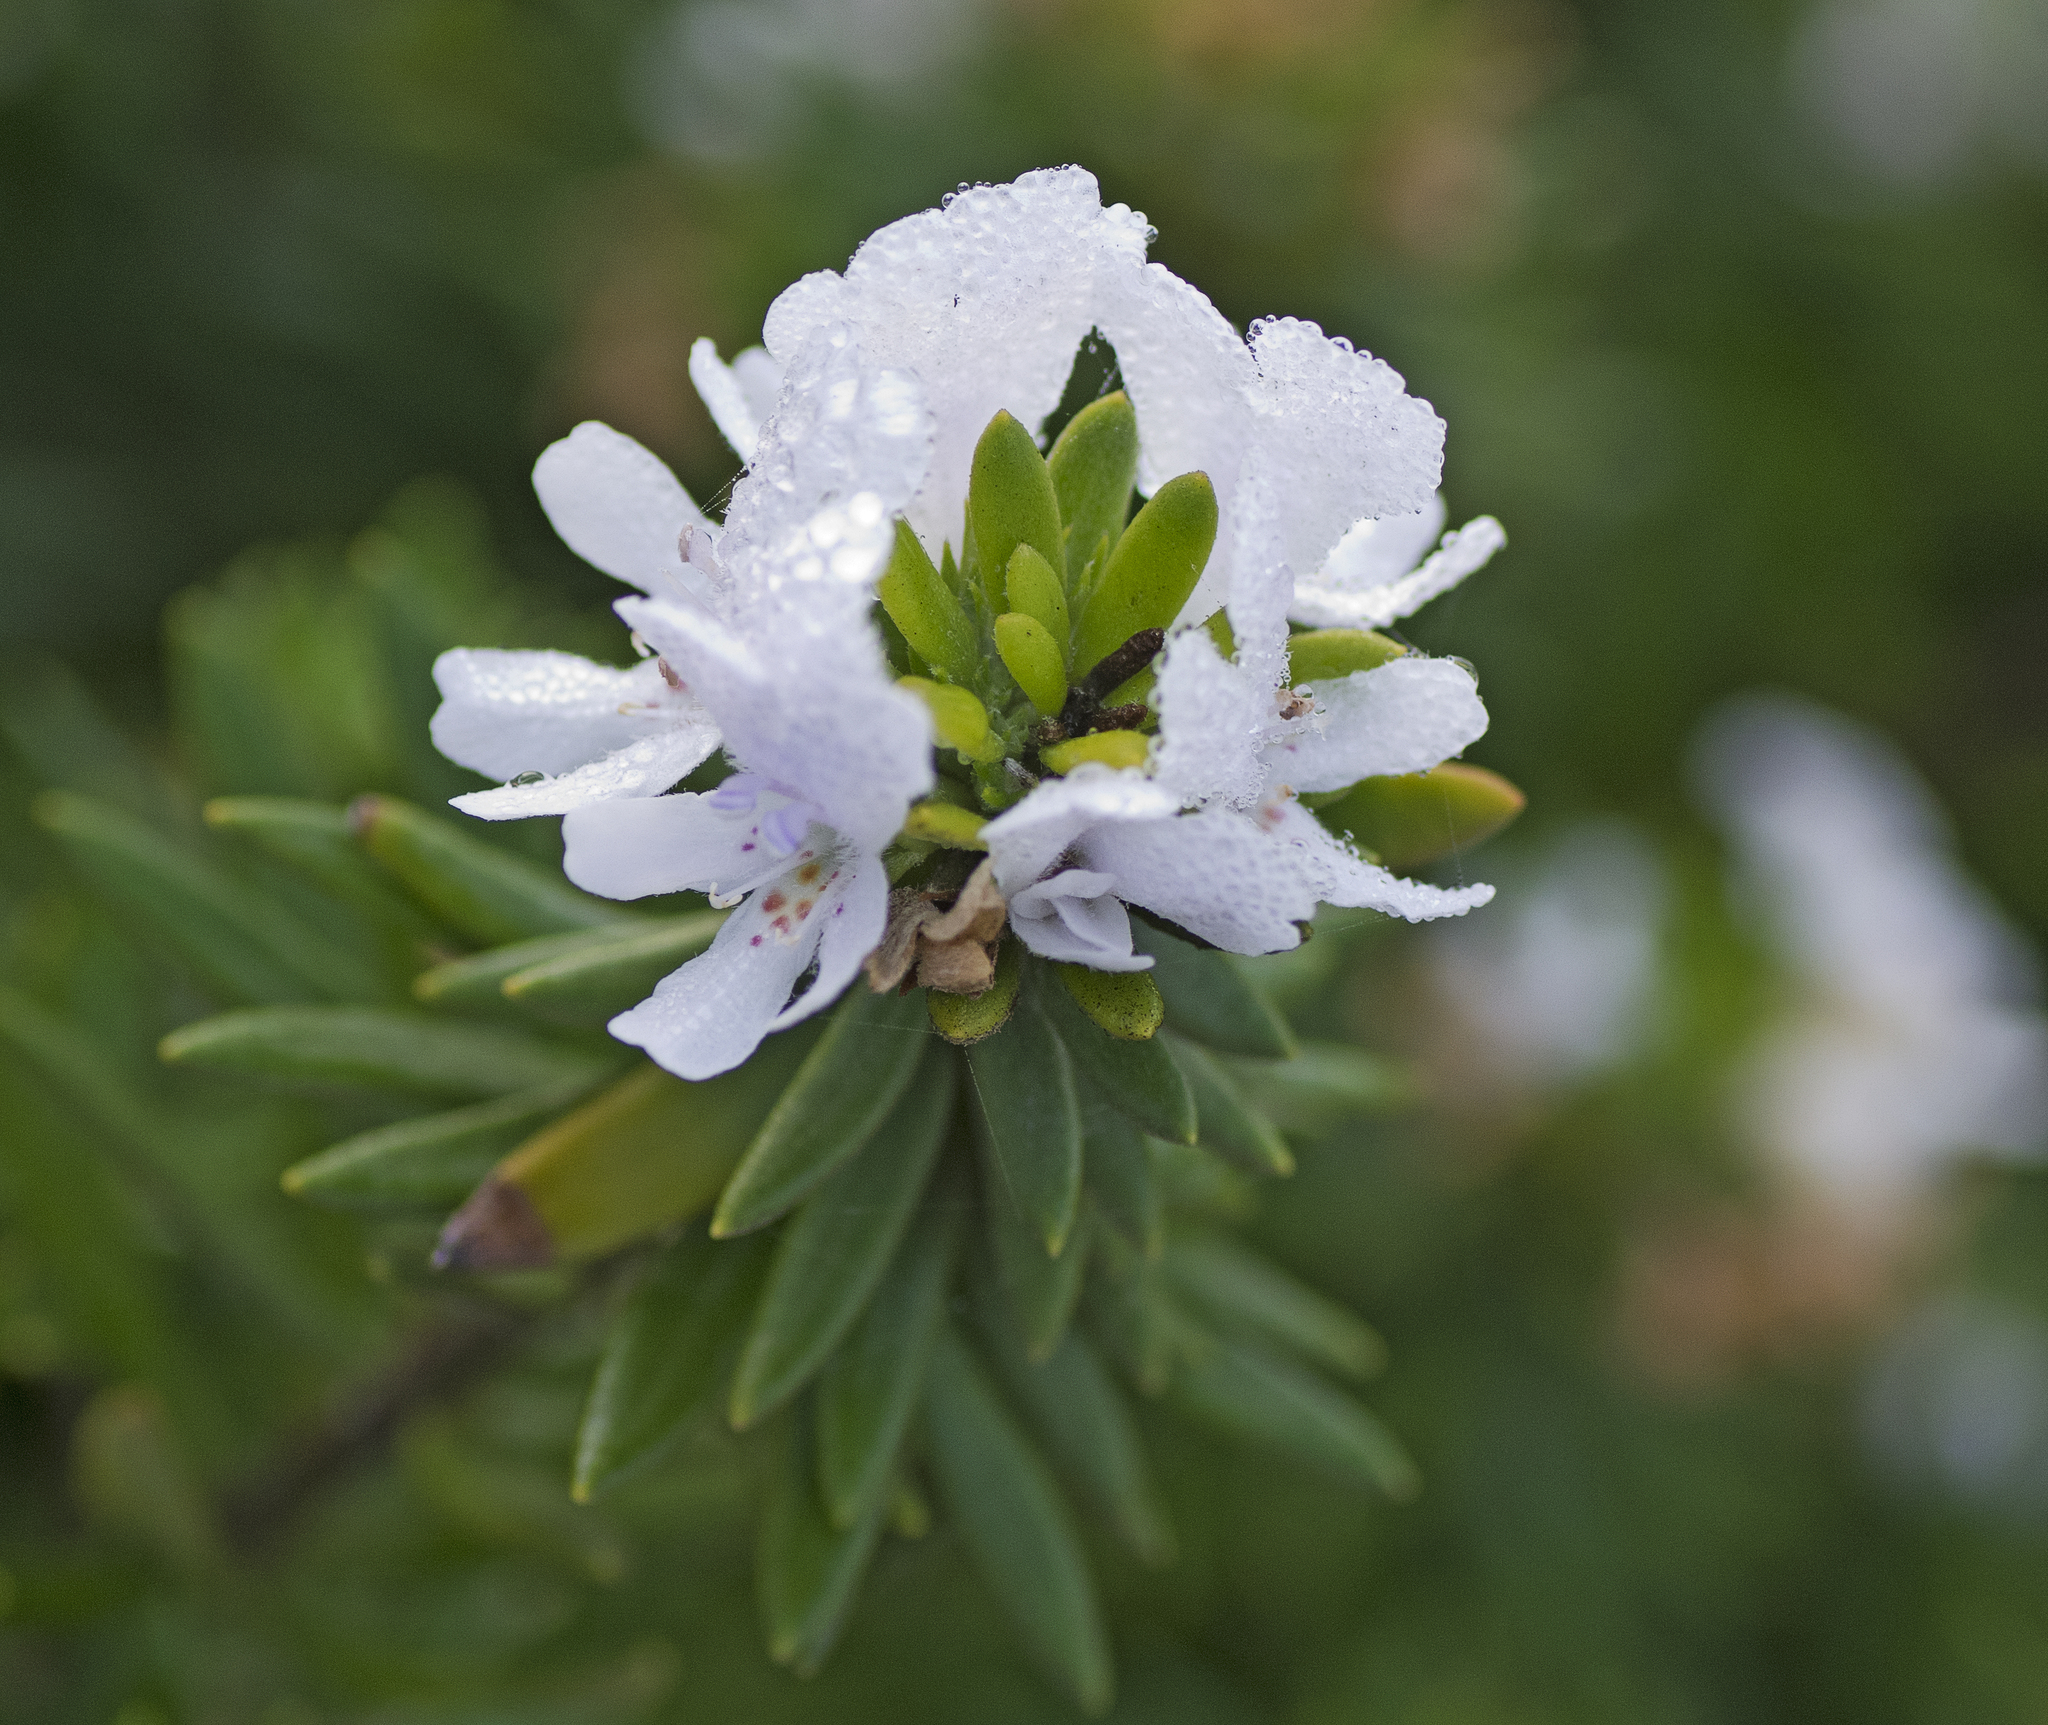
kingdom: Plantae
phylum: Tracheophyta
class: Magnoliopsida
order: Lamiales
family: Lamiaceae
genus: Westringia
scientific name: Westringia fruticosa
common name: Coastal-rosemary
